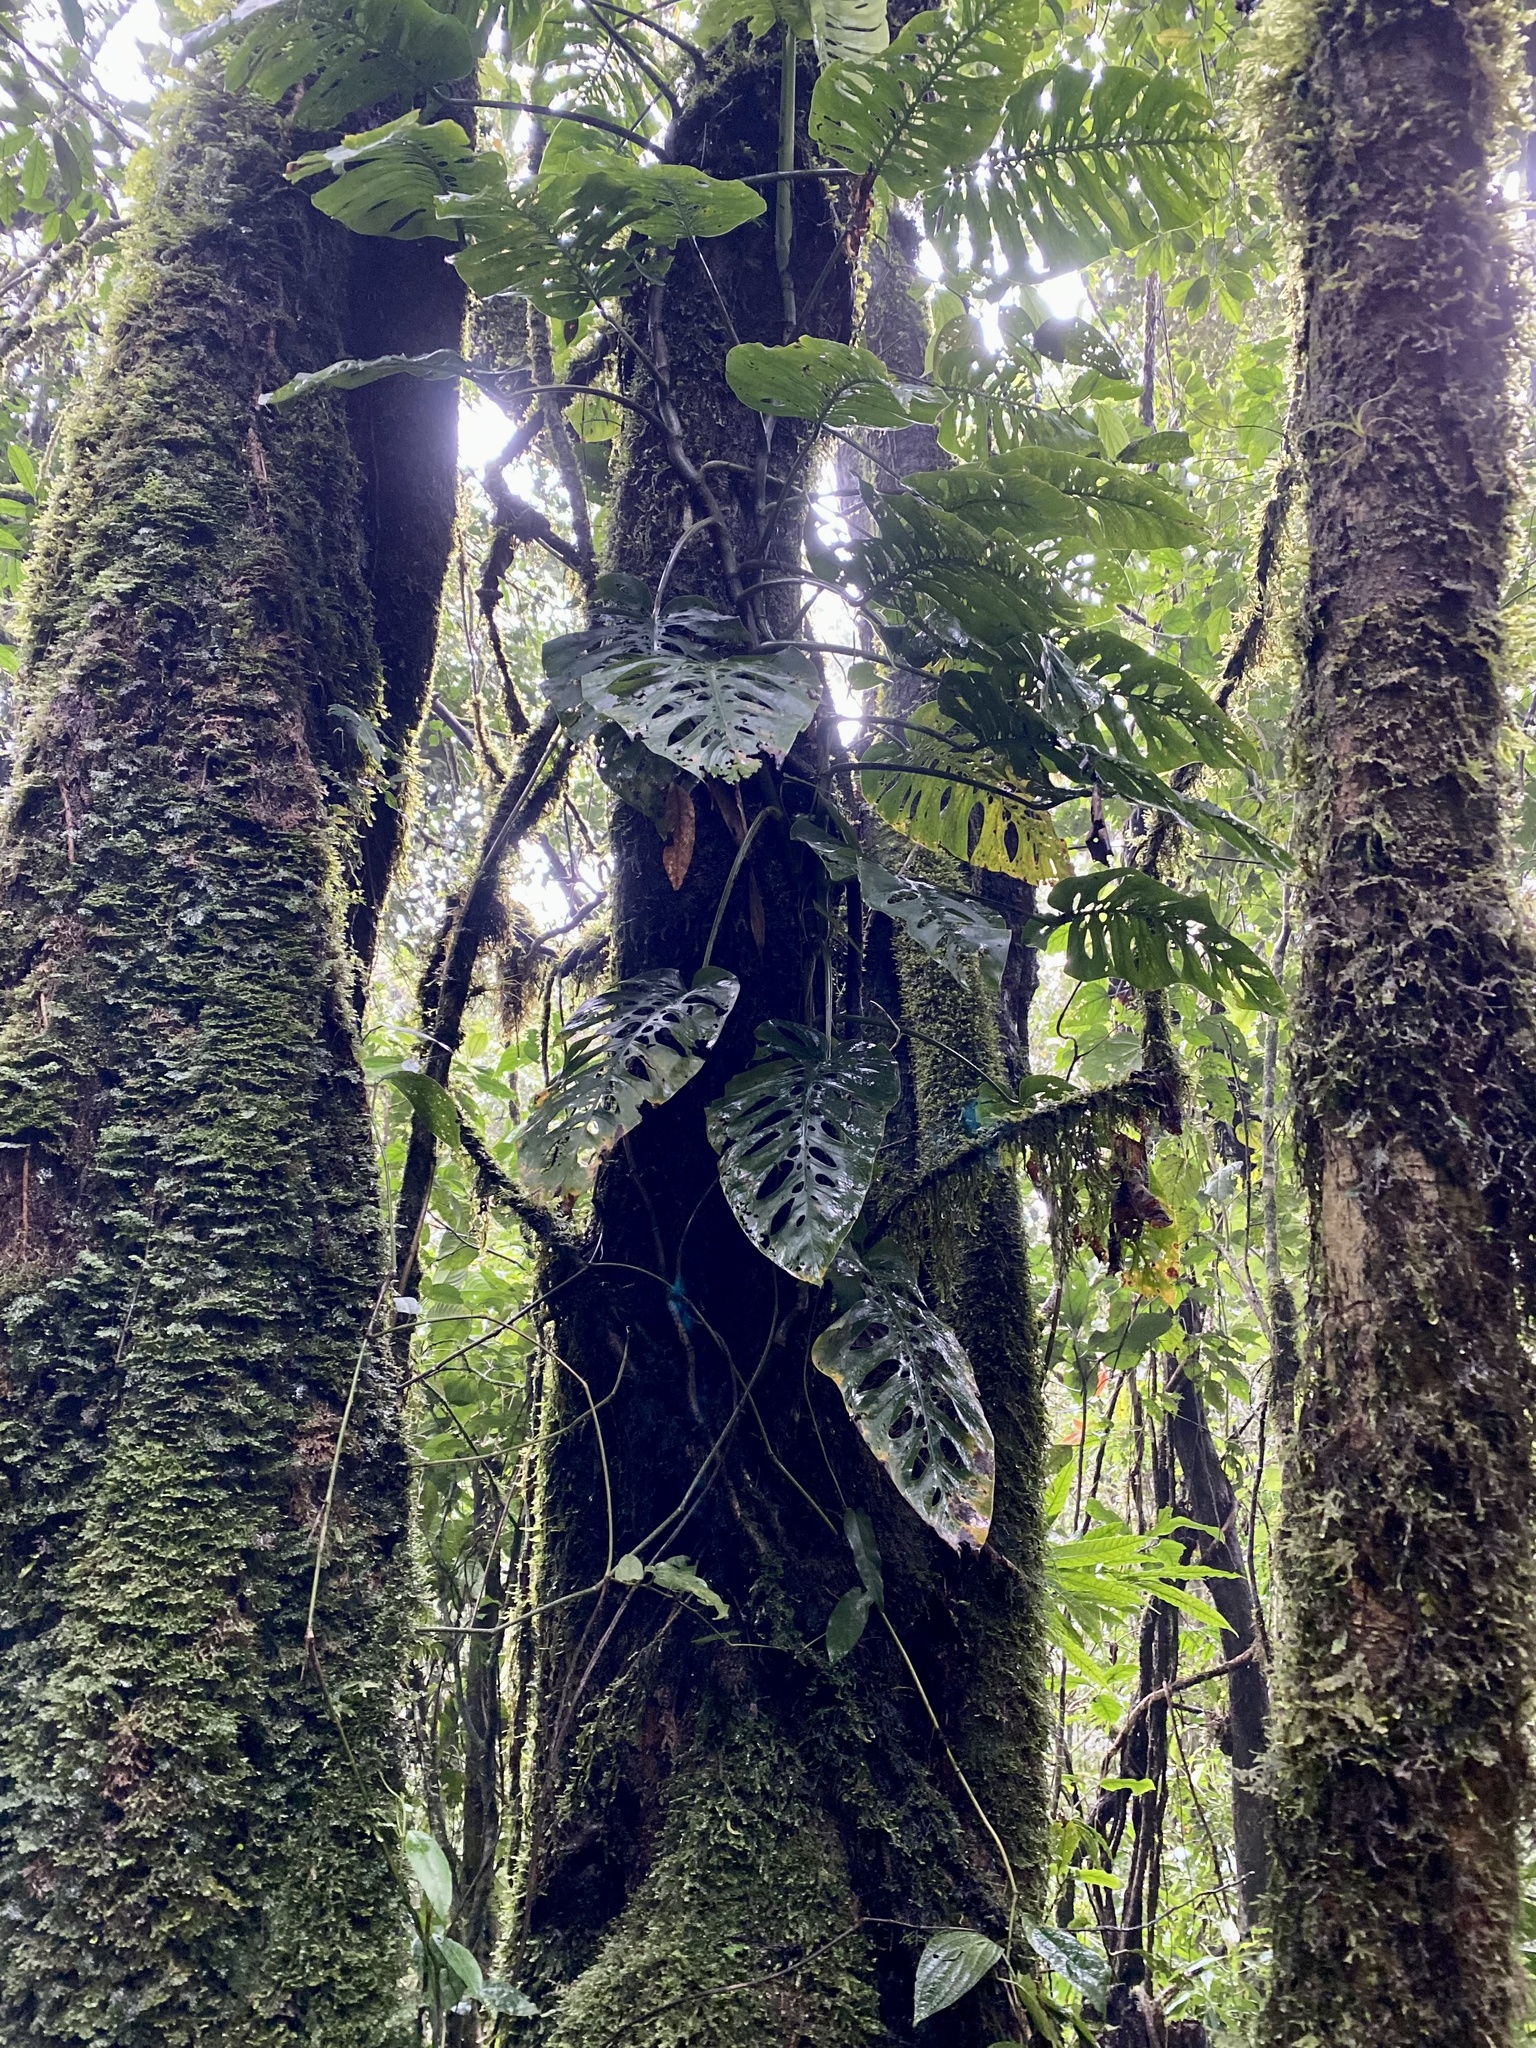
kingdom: Plantae
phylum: Tracheophyta
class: Liliopsida
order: Alismatales
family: Araceae
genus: Monstera
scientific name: Monstera siltepecana
